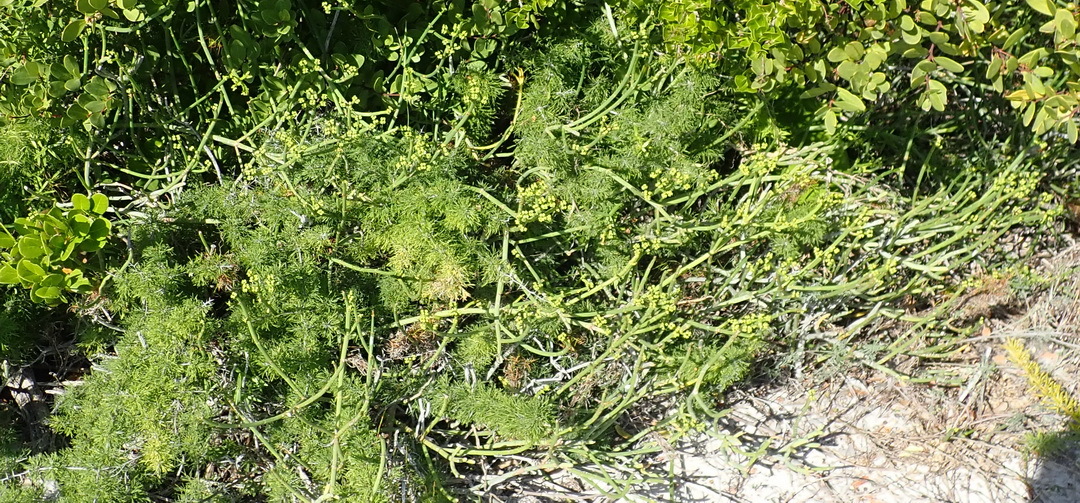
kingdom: Plantae
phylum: Tracheophyta
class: Magnoliopsida
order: Malpighiales
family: Euphorbiaceae
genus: Euphorbia
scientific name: Euphorbia burmanni
